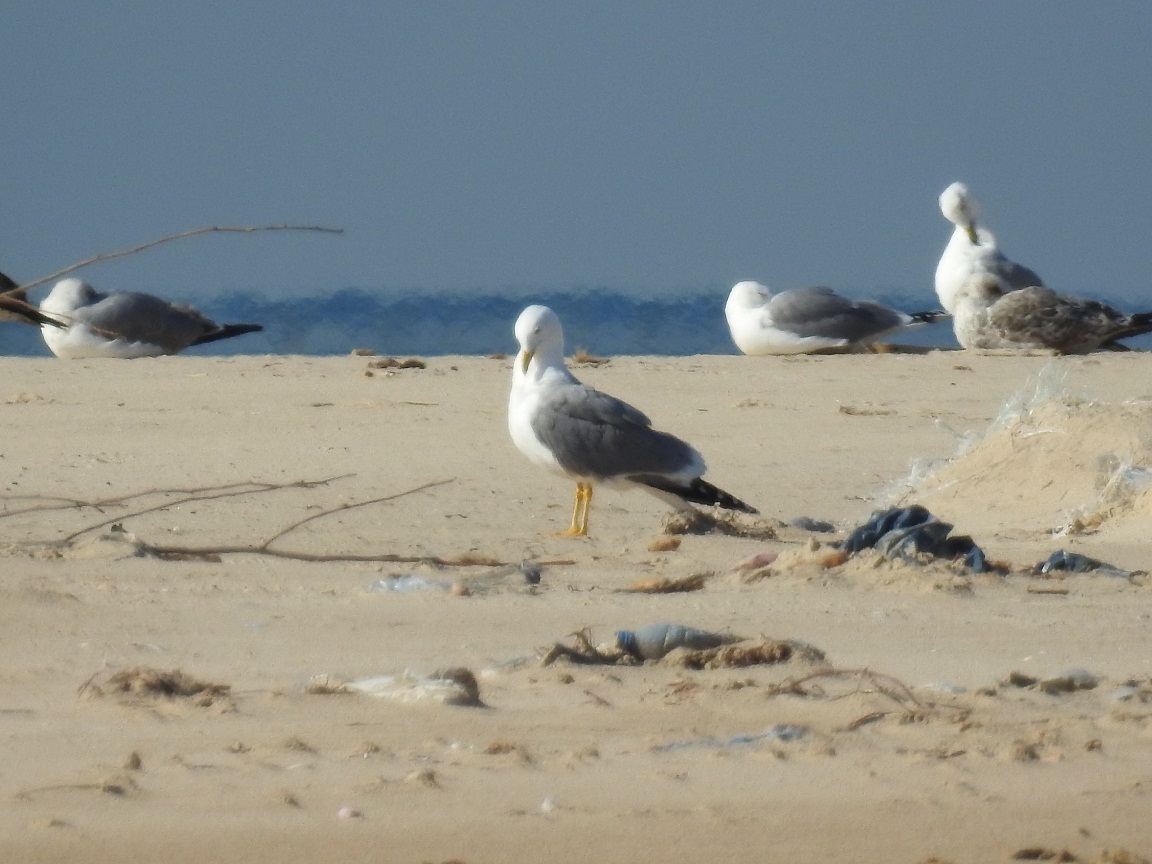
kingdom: Animalia
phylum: Chordata
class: Aves
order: Charadriiformes
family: Laridae
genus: Larus
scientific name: Larus michahellis
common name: Yellow-legged gull
